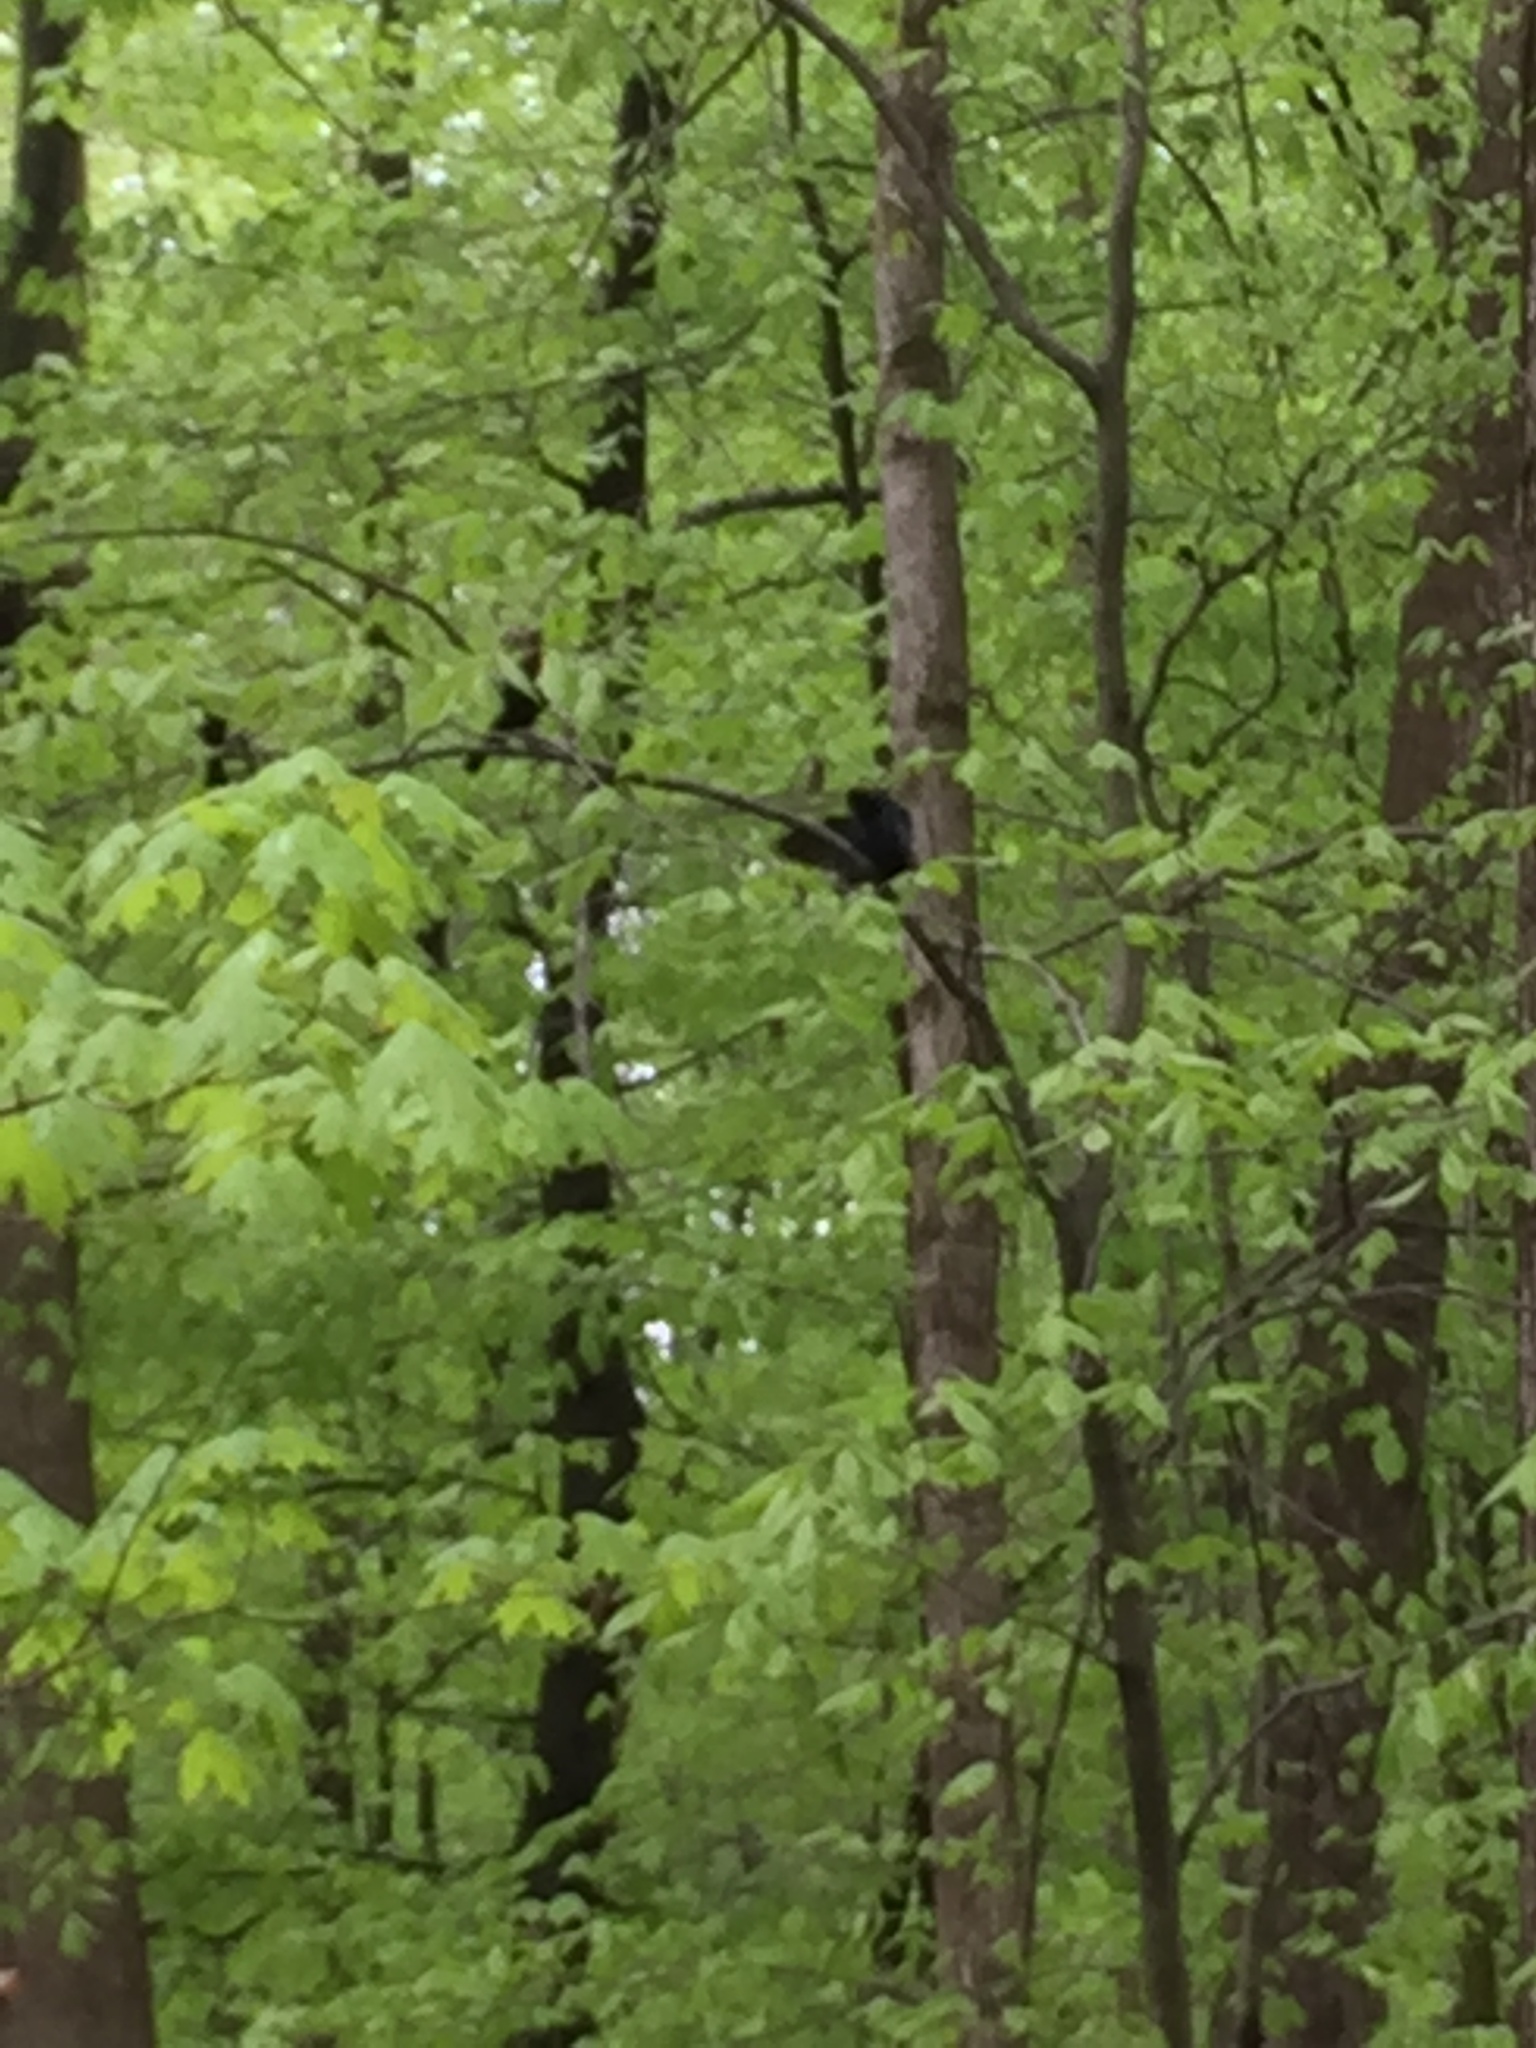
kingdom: Animalia
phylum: Chordata
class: Aves
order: Passeriformes
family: Icteridae
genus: Molothrus
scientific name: Molothrus ater
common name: Brown-headed cowbird
